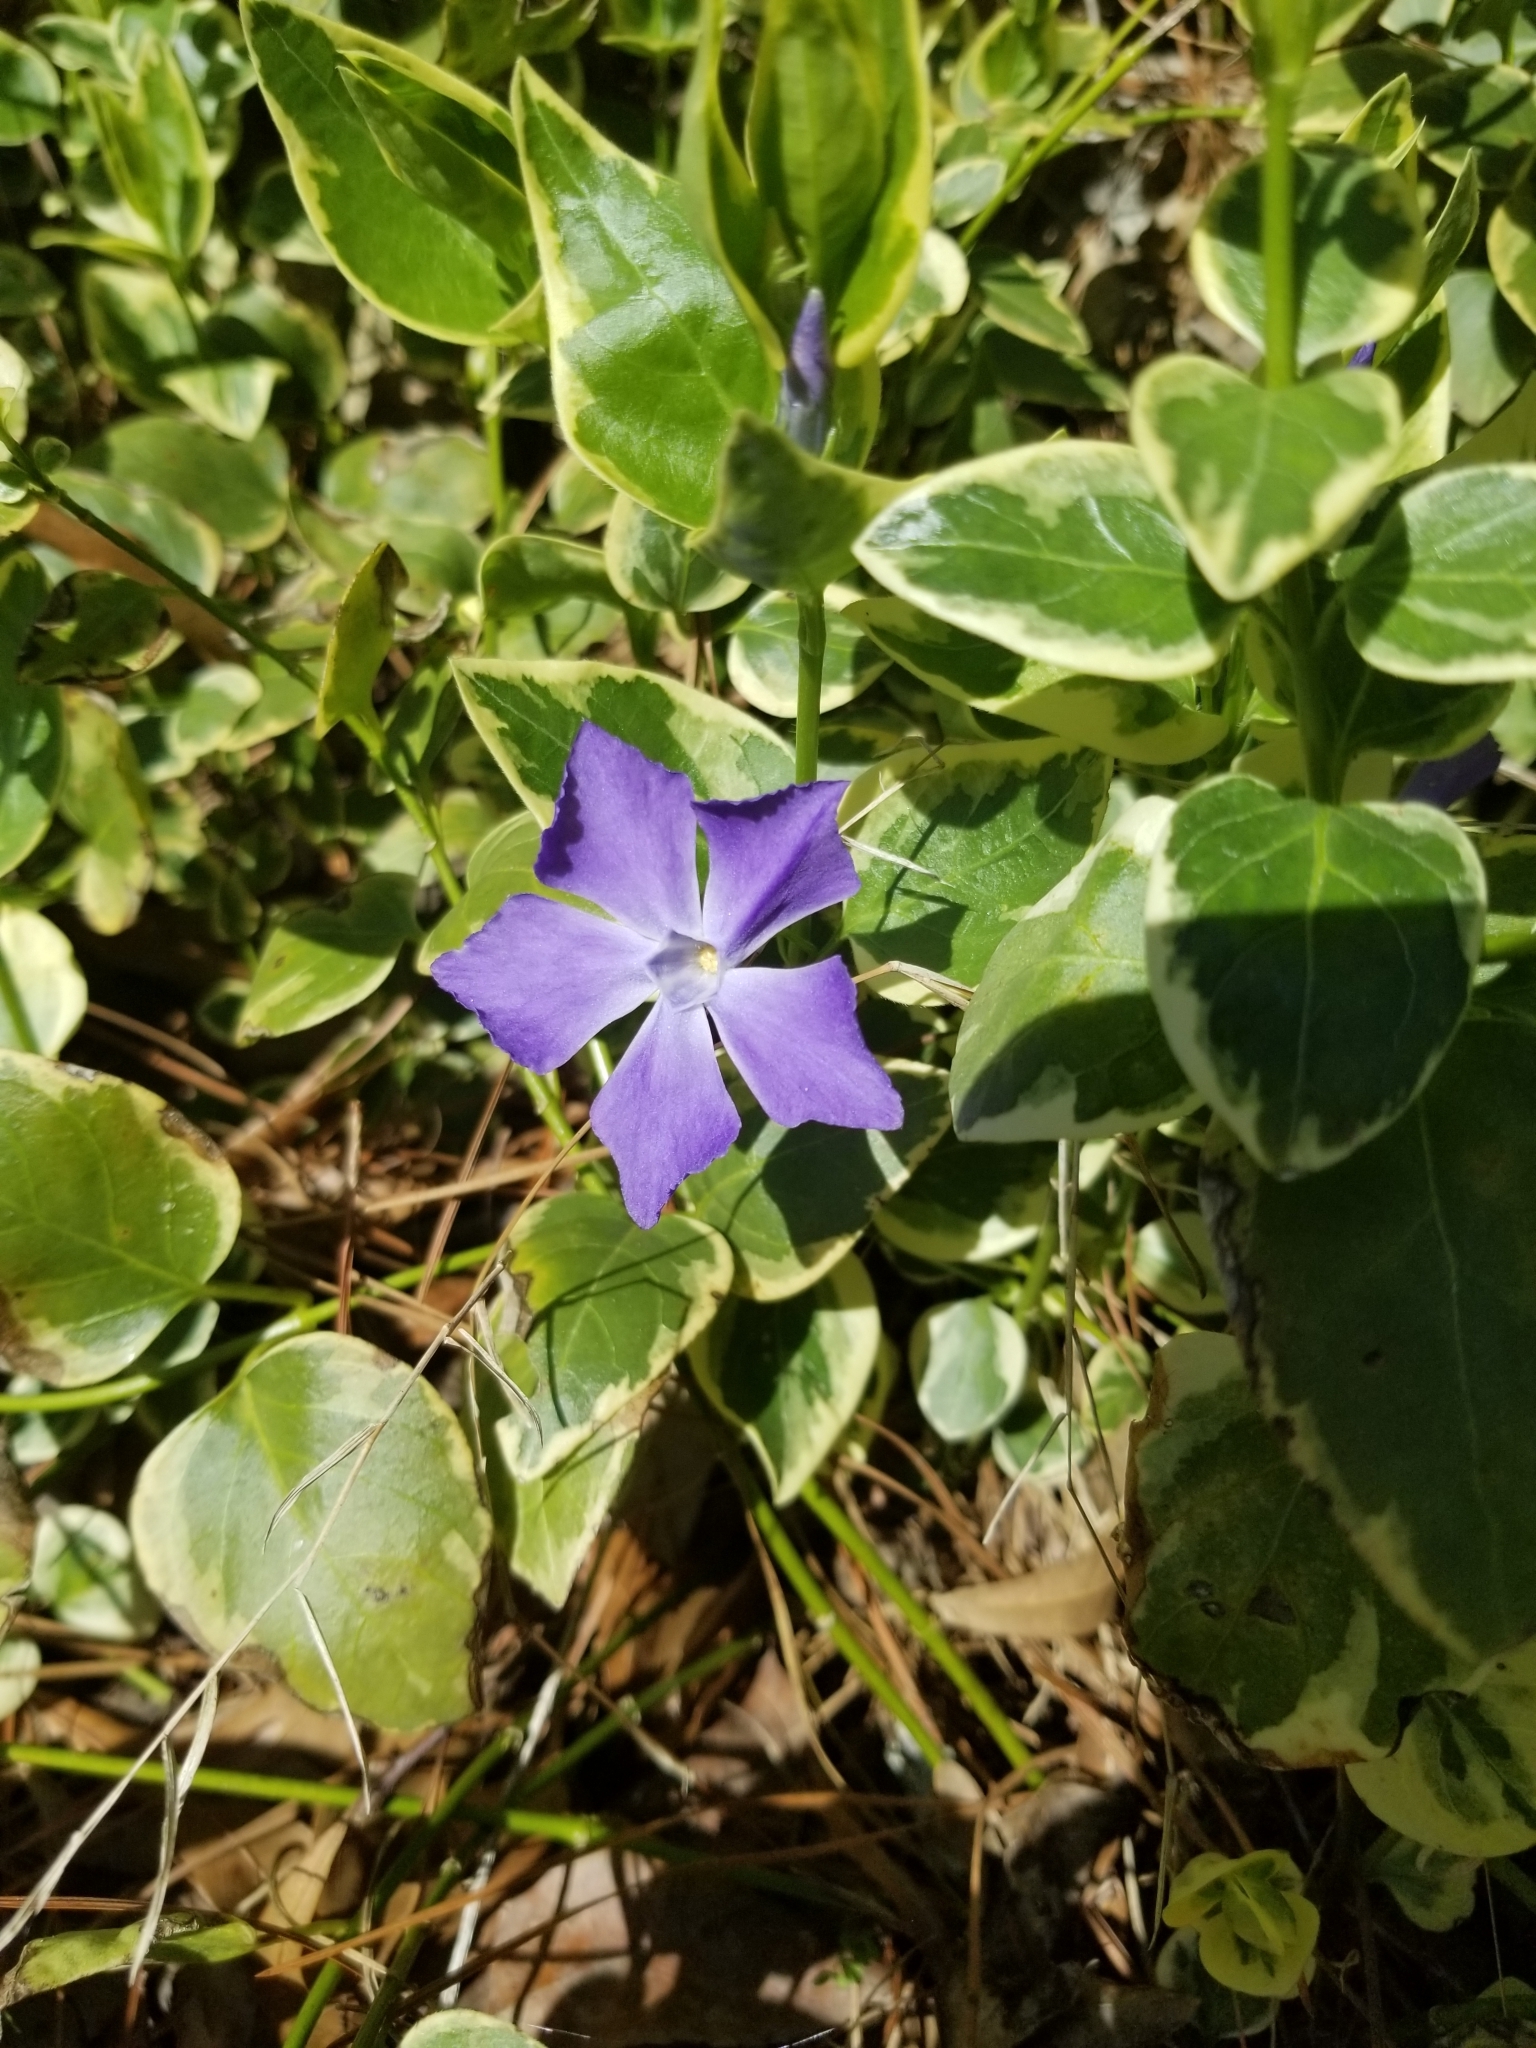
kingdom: Plantae
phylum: Tracheophyta
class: Magnoliopsida
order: Gentianales
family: Apocynaceae
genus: Vinca
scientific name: Vinca major
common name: Greater periwinkle
